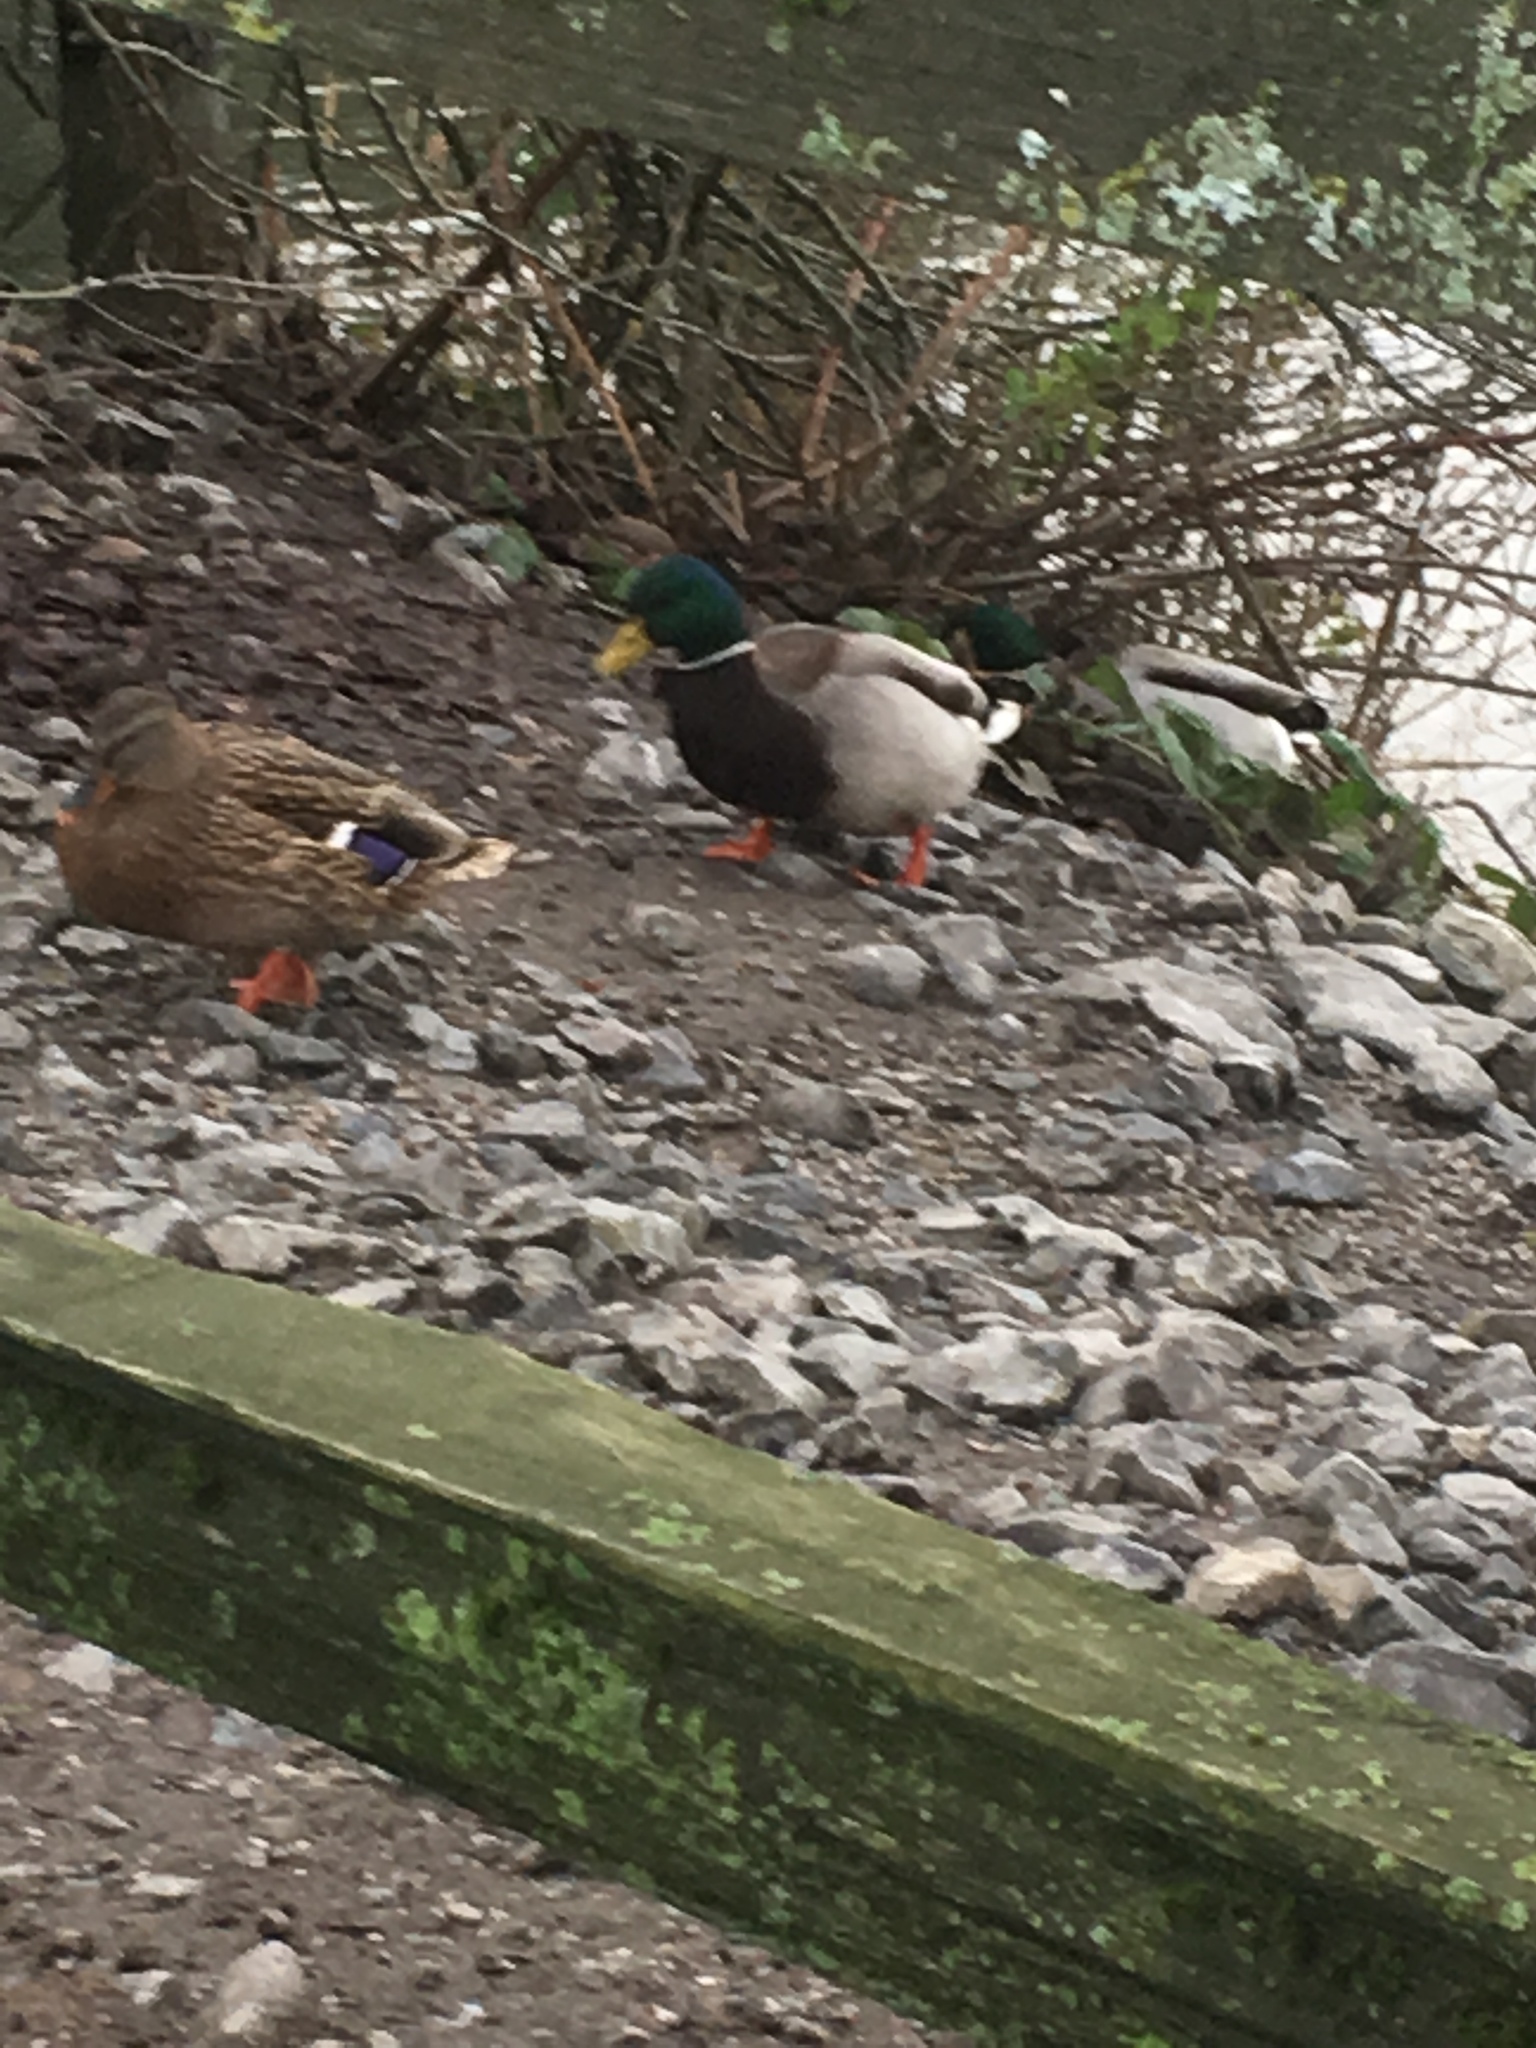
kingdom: Animalia
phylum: Chordata
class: Aves
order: Anseriformes
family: Anatidae
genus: Anas
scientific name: Anas platyrhynchos
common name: Mallard
